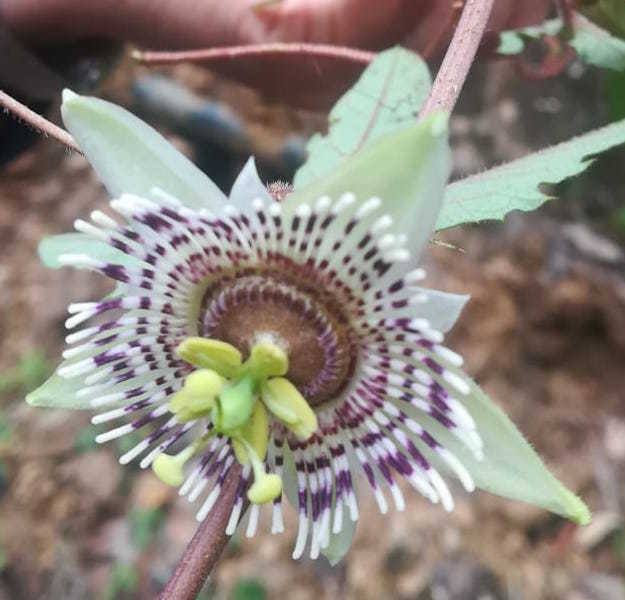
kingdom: Plantae
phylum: Tracheophyta
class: Magnoliopsida
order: Malpighiales
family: Passifloraceae
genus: Passiflora
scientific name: Passiflora exsudans
